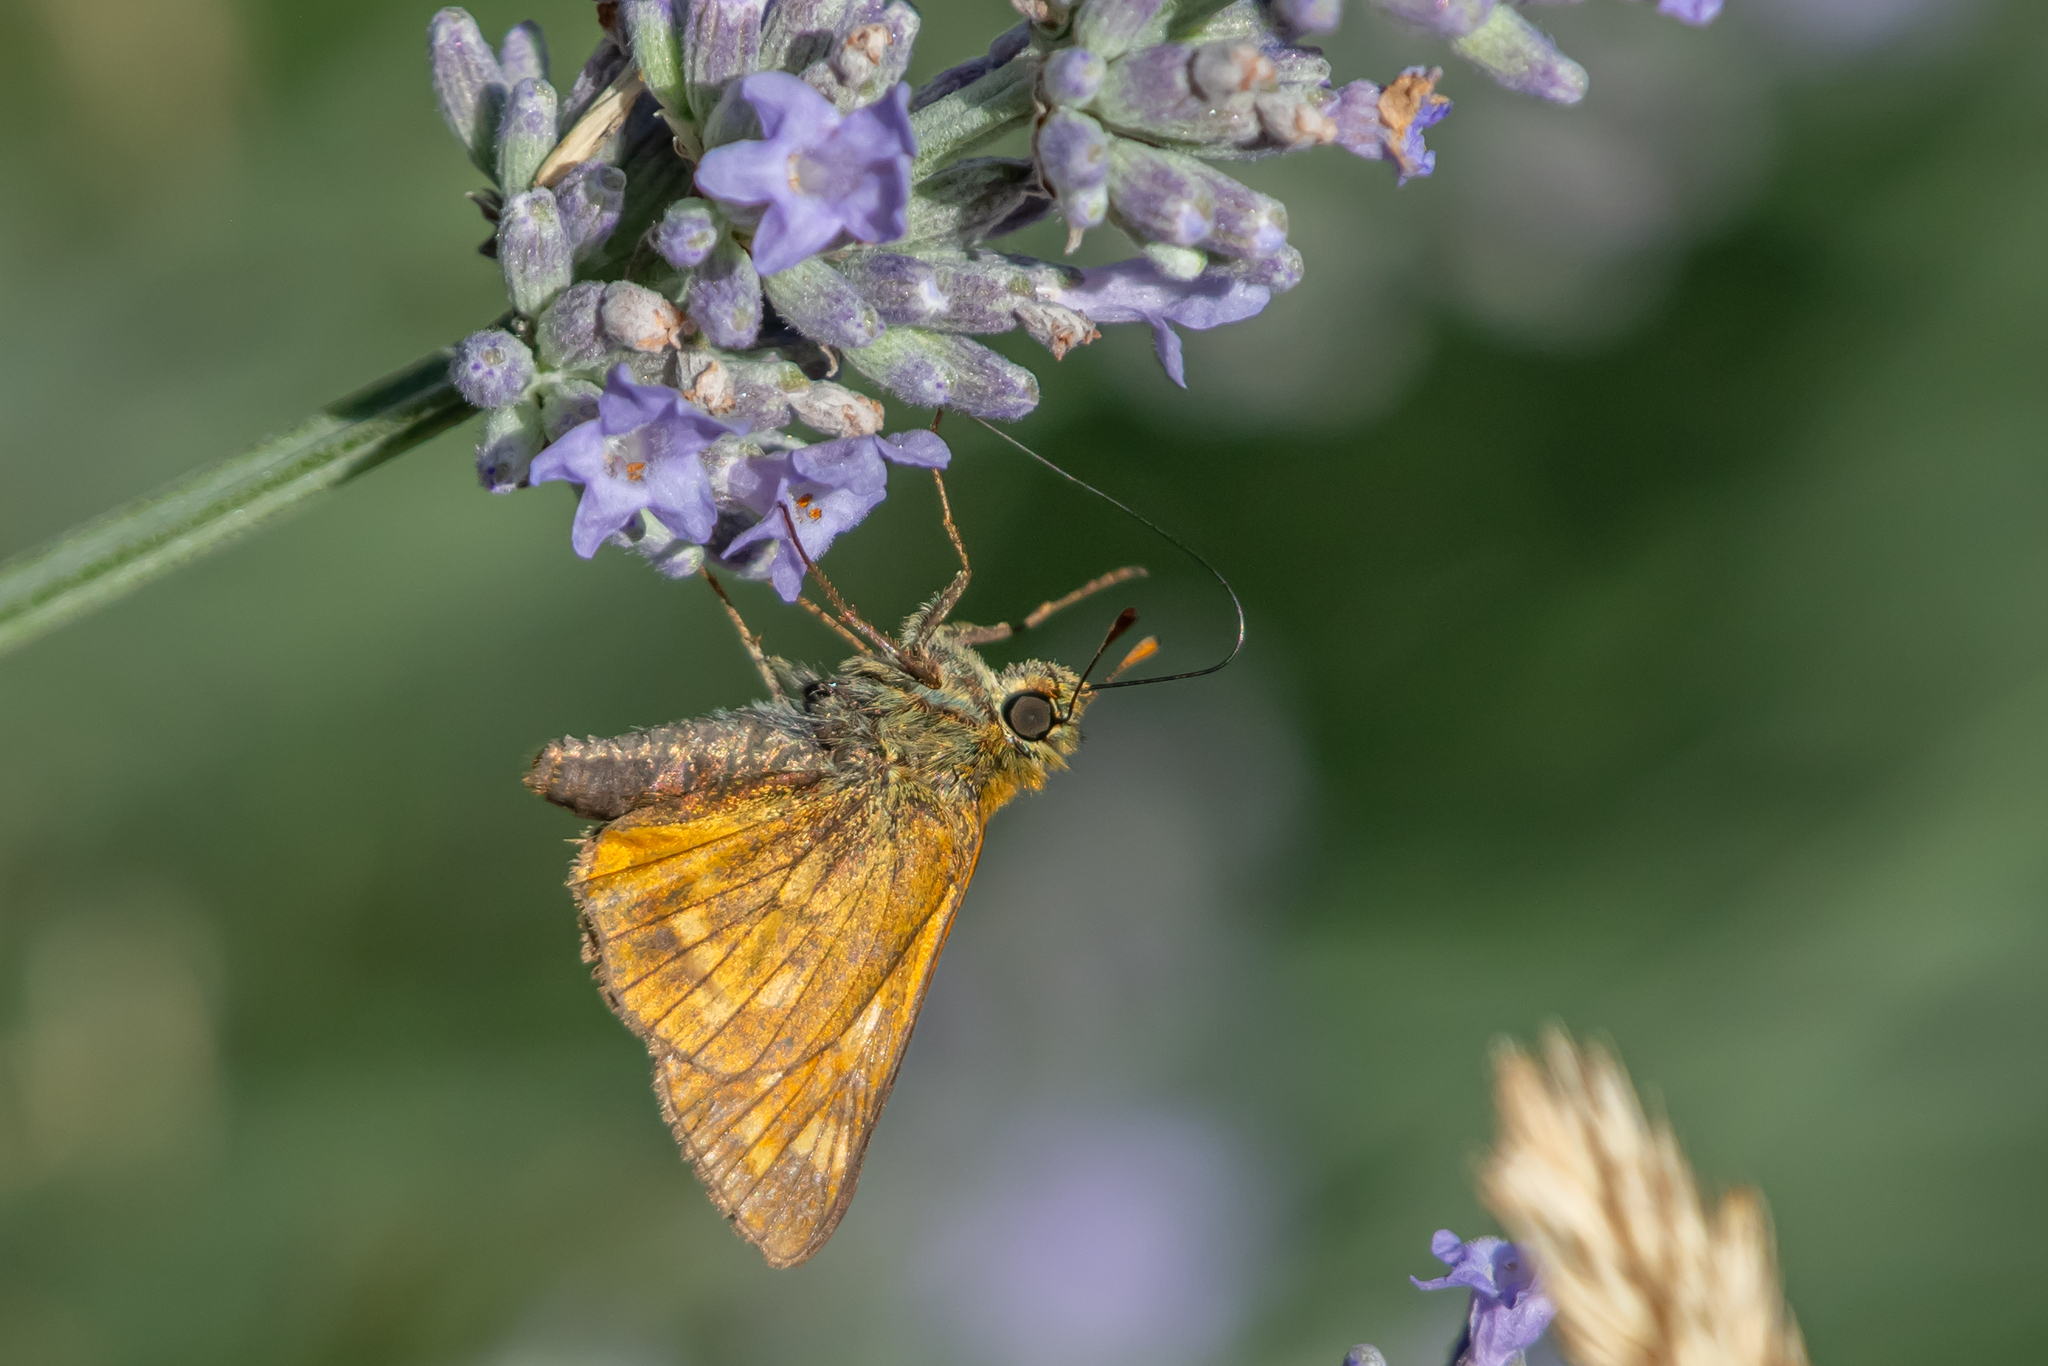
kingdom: Animalia
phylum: Arthropoda
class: Insecta
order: Lepidoptera
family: Hesperiidae
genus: Ochlodes
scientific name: Ochlodes venata
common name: Large skipper
